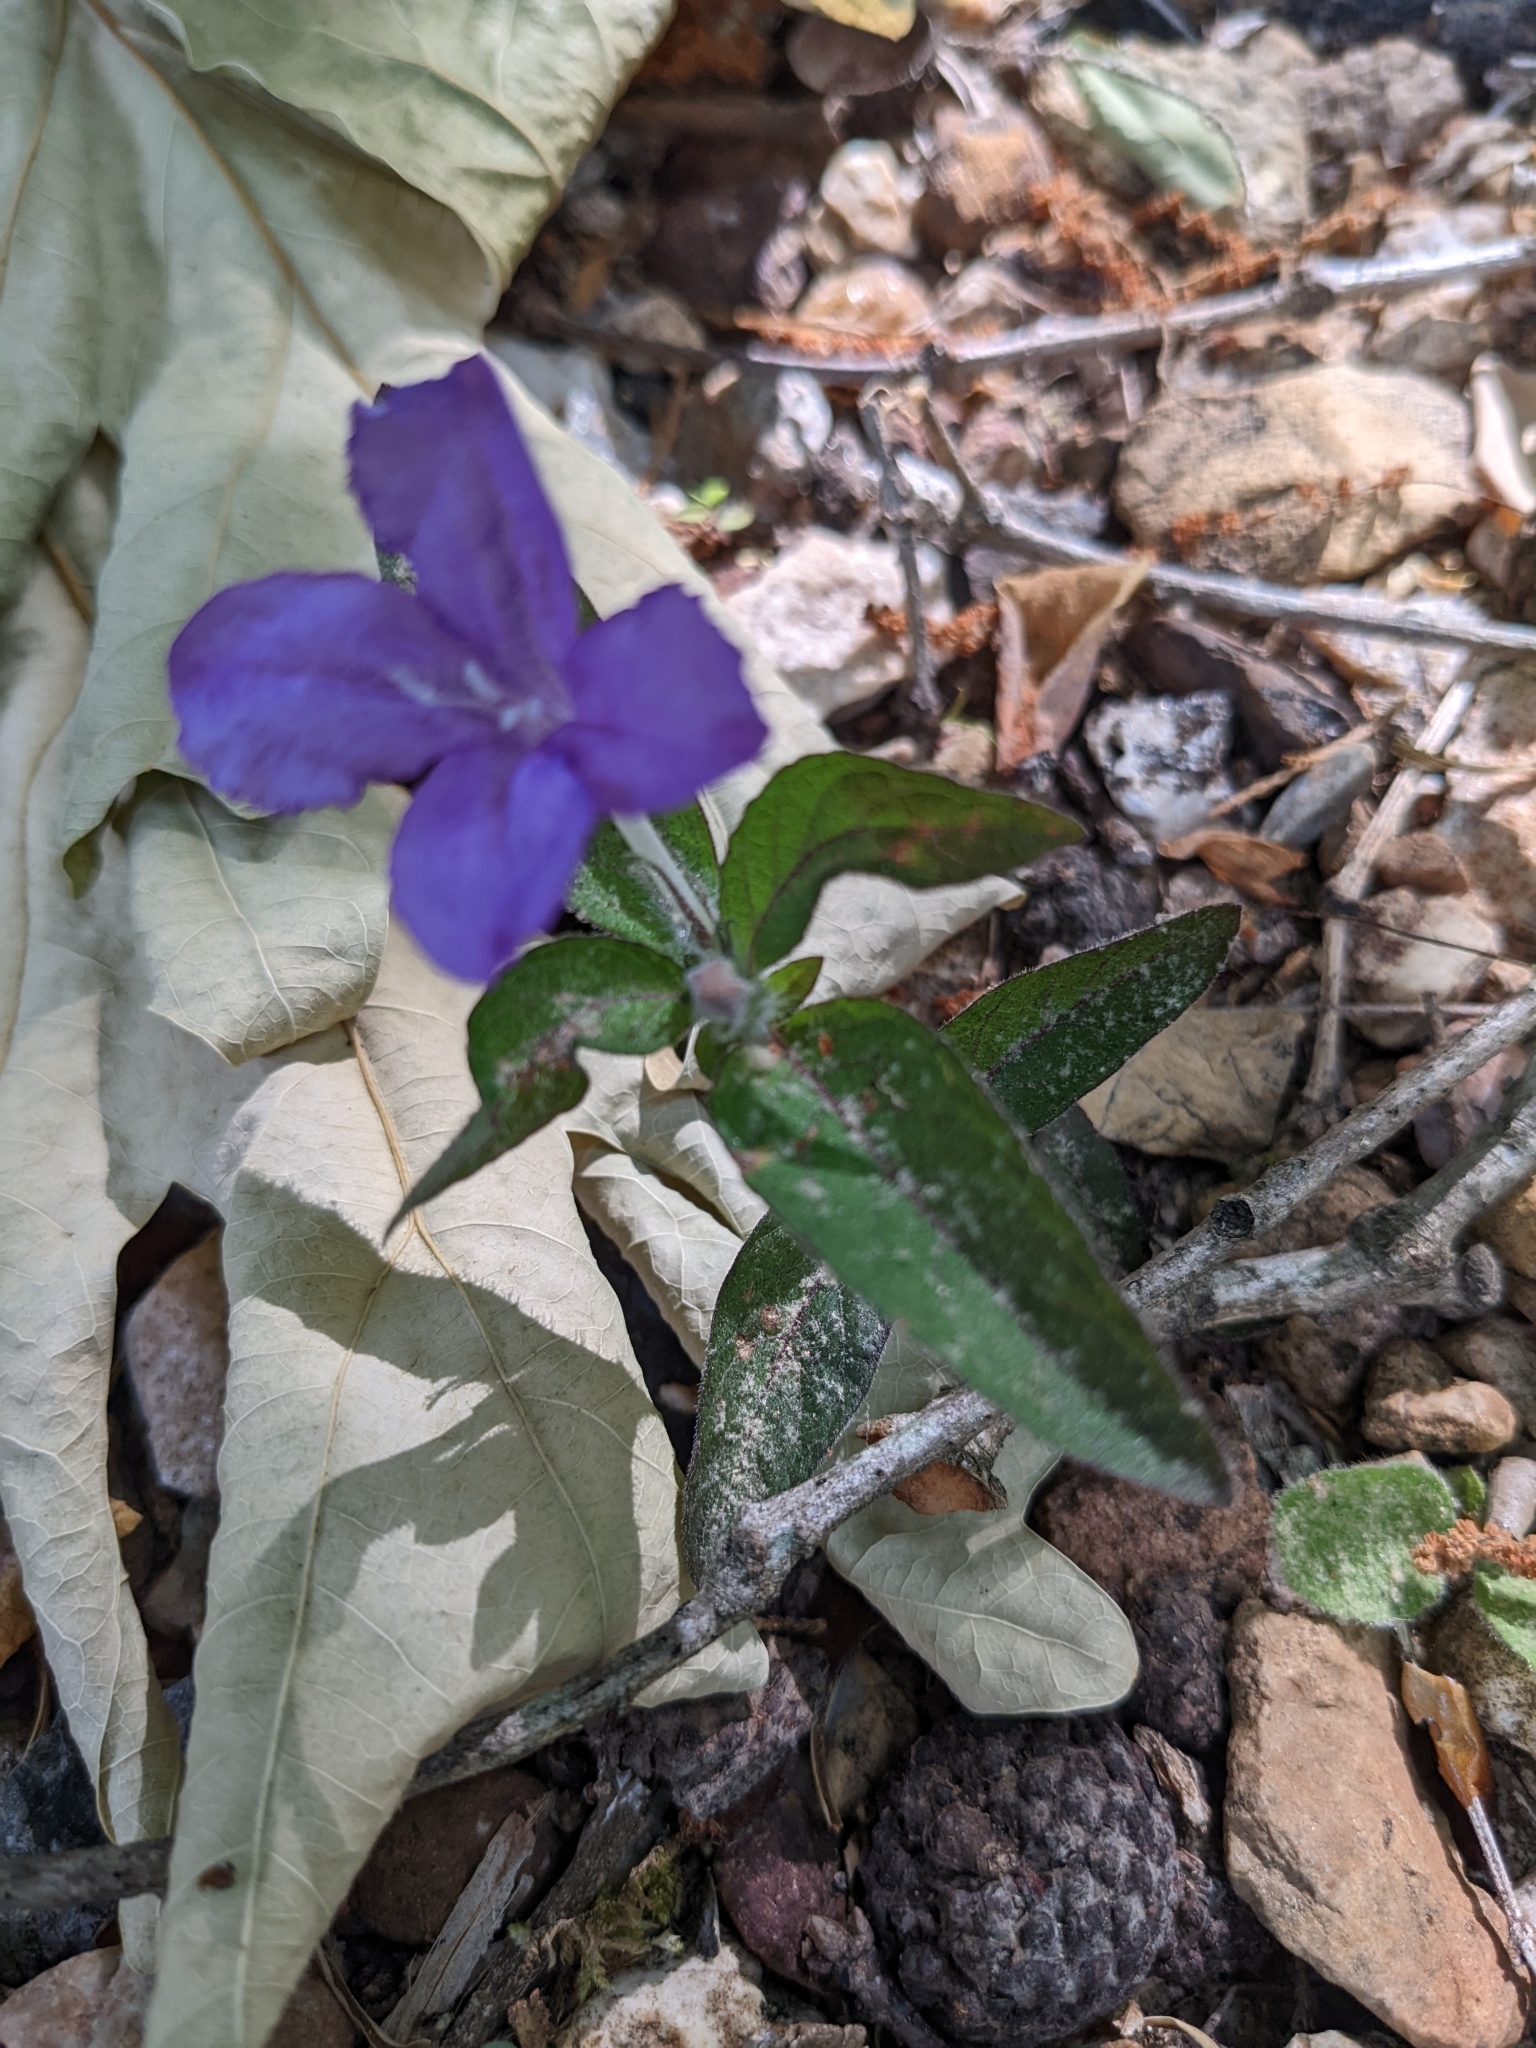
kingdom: Plantae
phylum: Tracheophyta
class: Magnoliopsida
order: Lamiales
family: Acanthaceae
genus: Ruellia
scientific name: Ruellia caroliniensis
